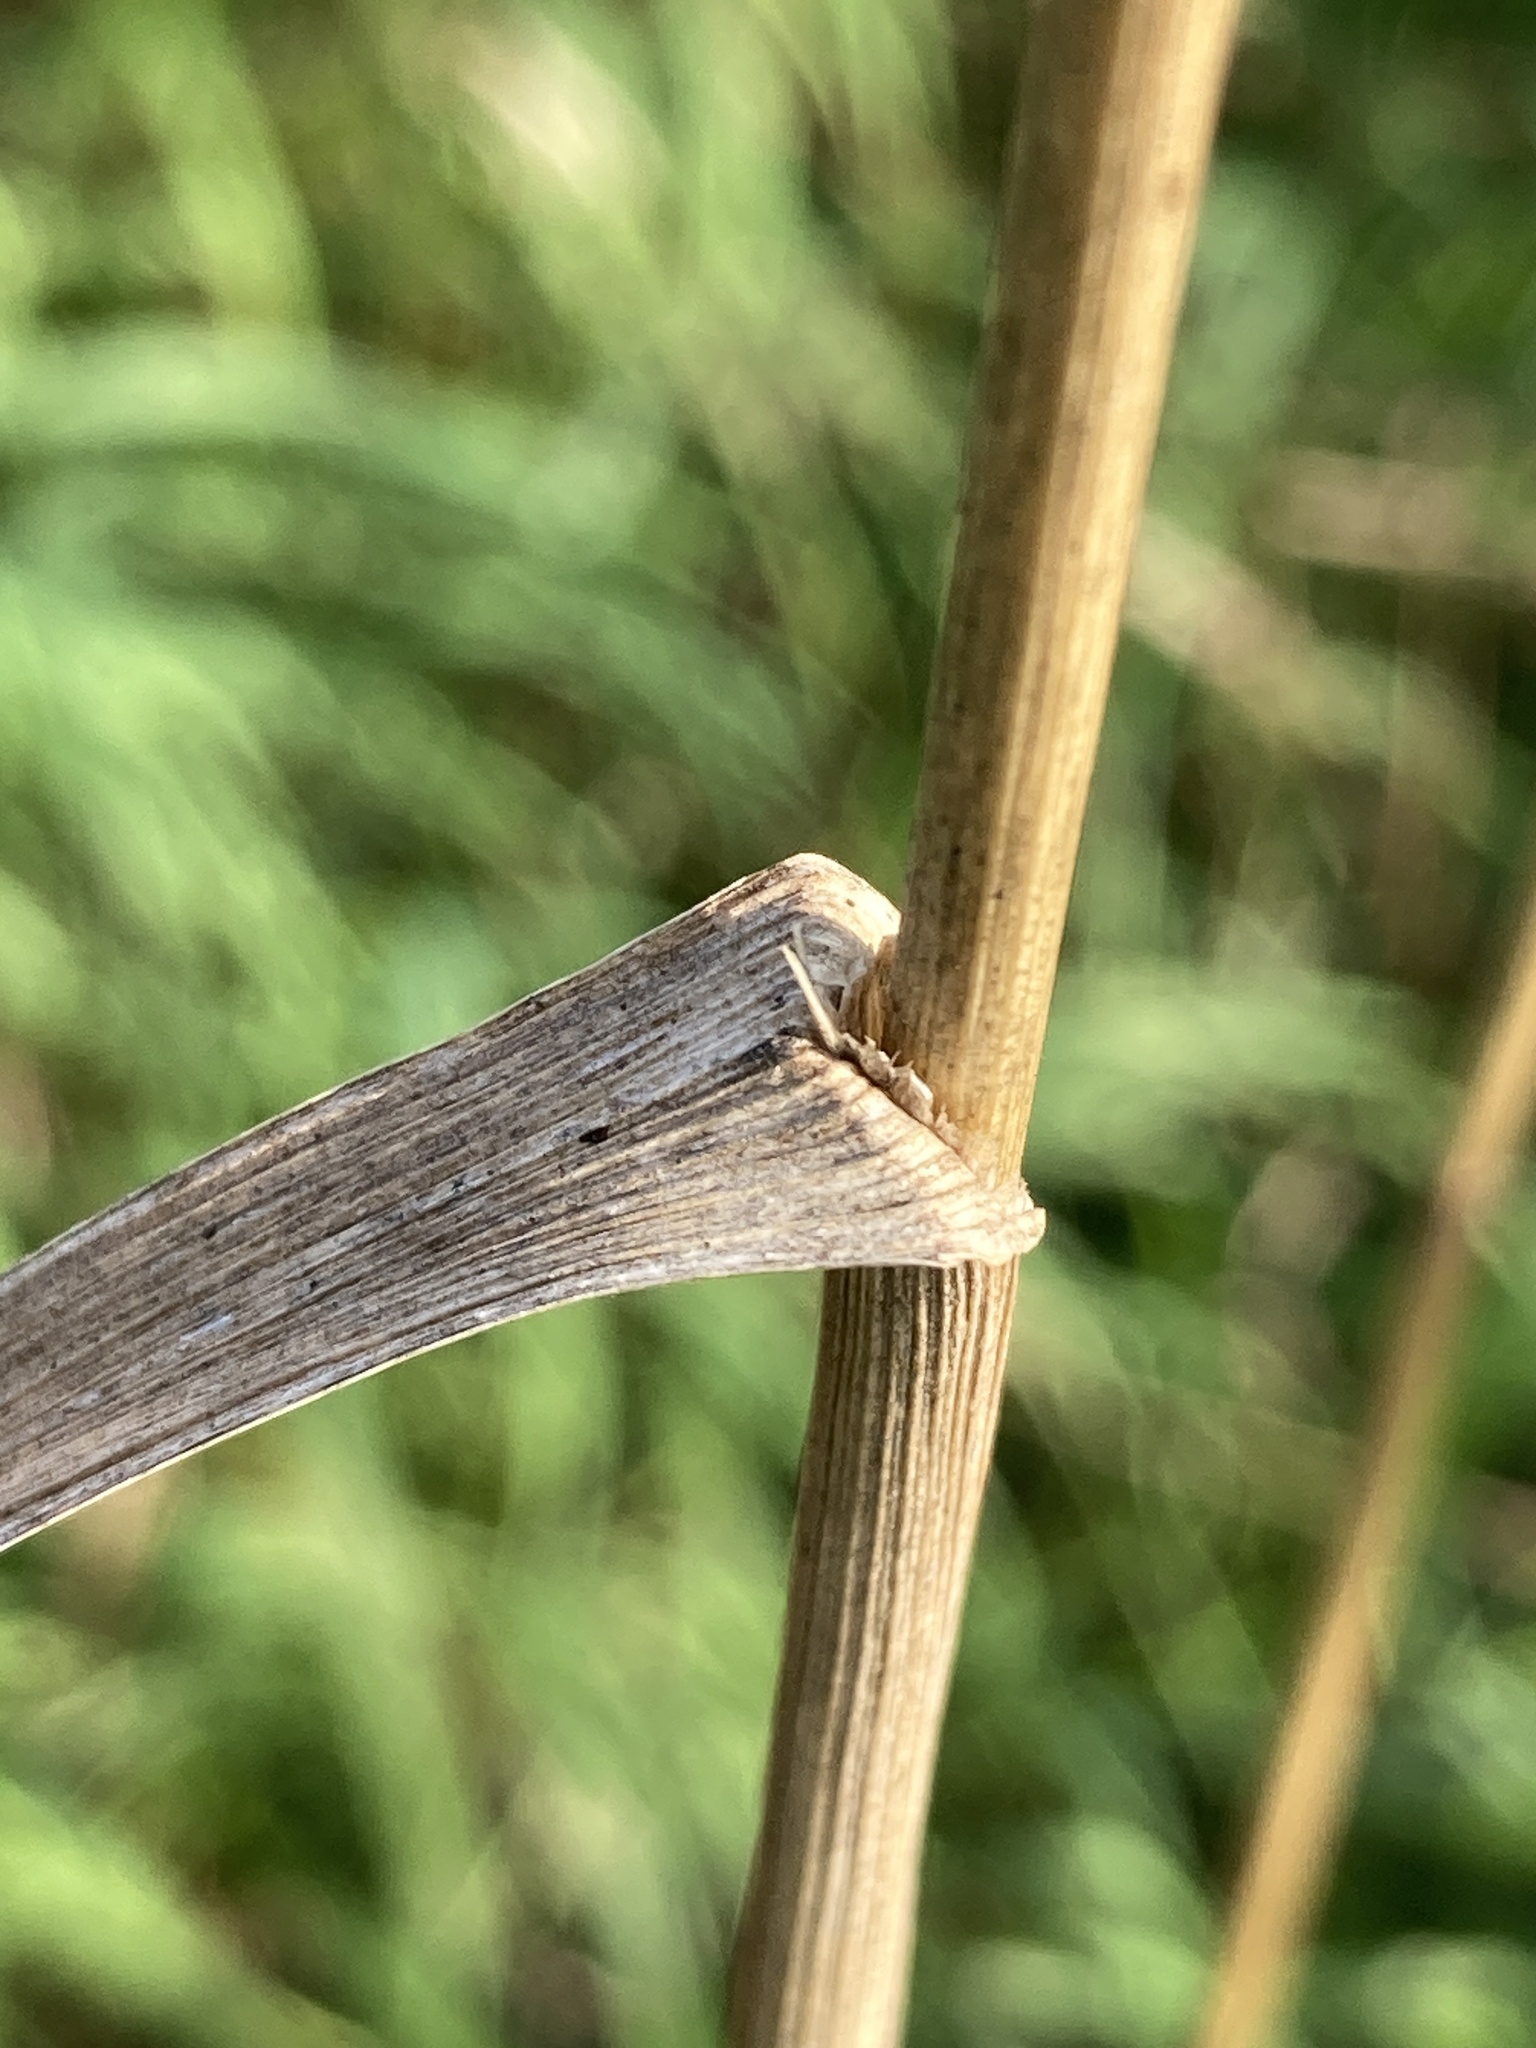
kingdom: Plantae
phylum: Tracheophyta
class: Liliopsida
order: Poales
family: Poaceae
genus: Dactylis
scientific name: Dactylis glomerata
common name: Orchardgrass
